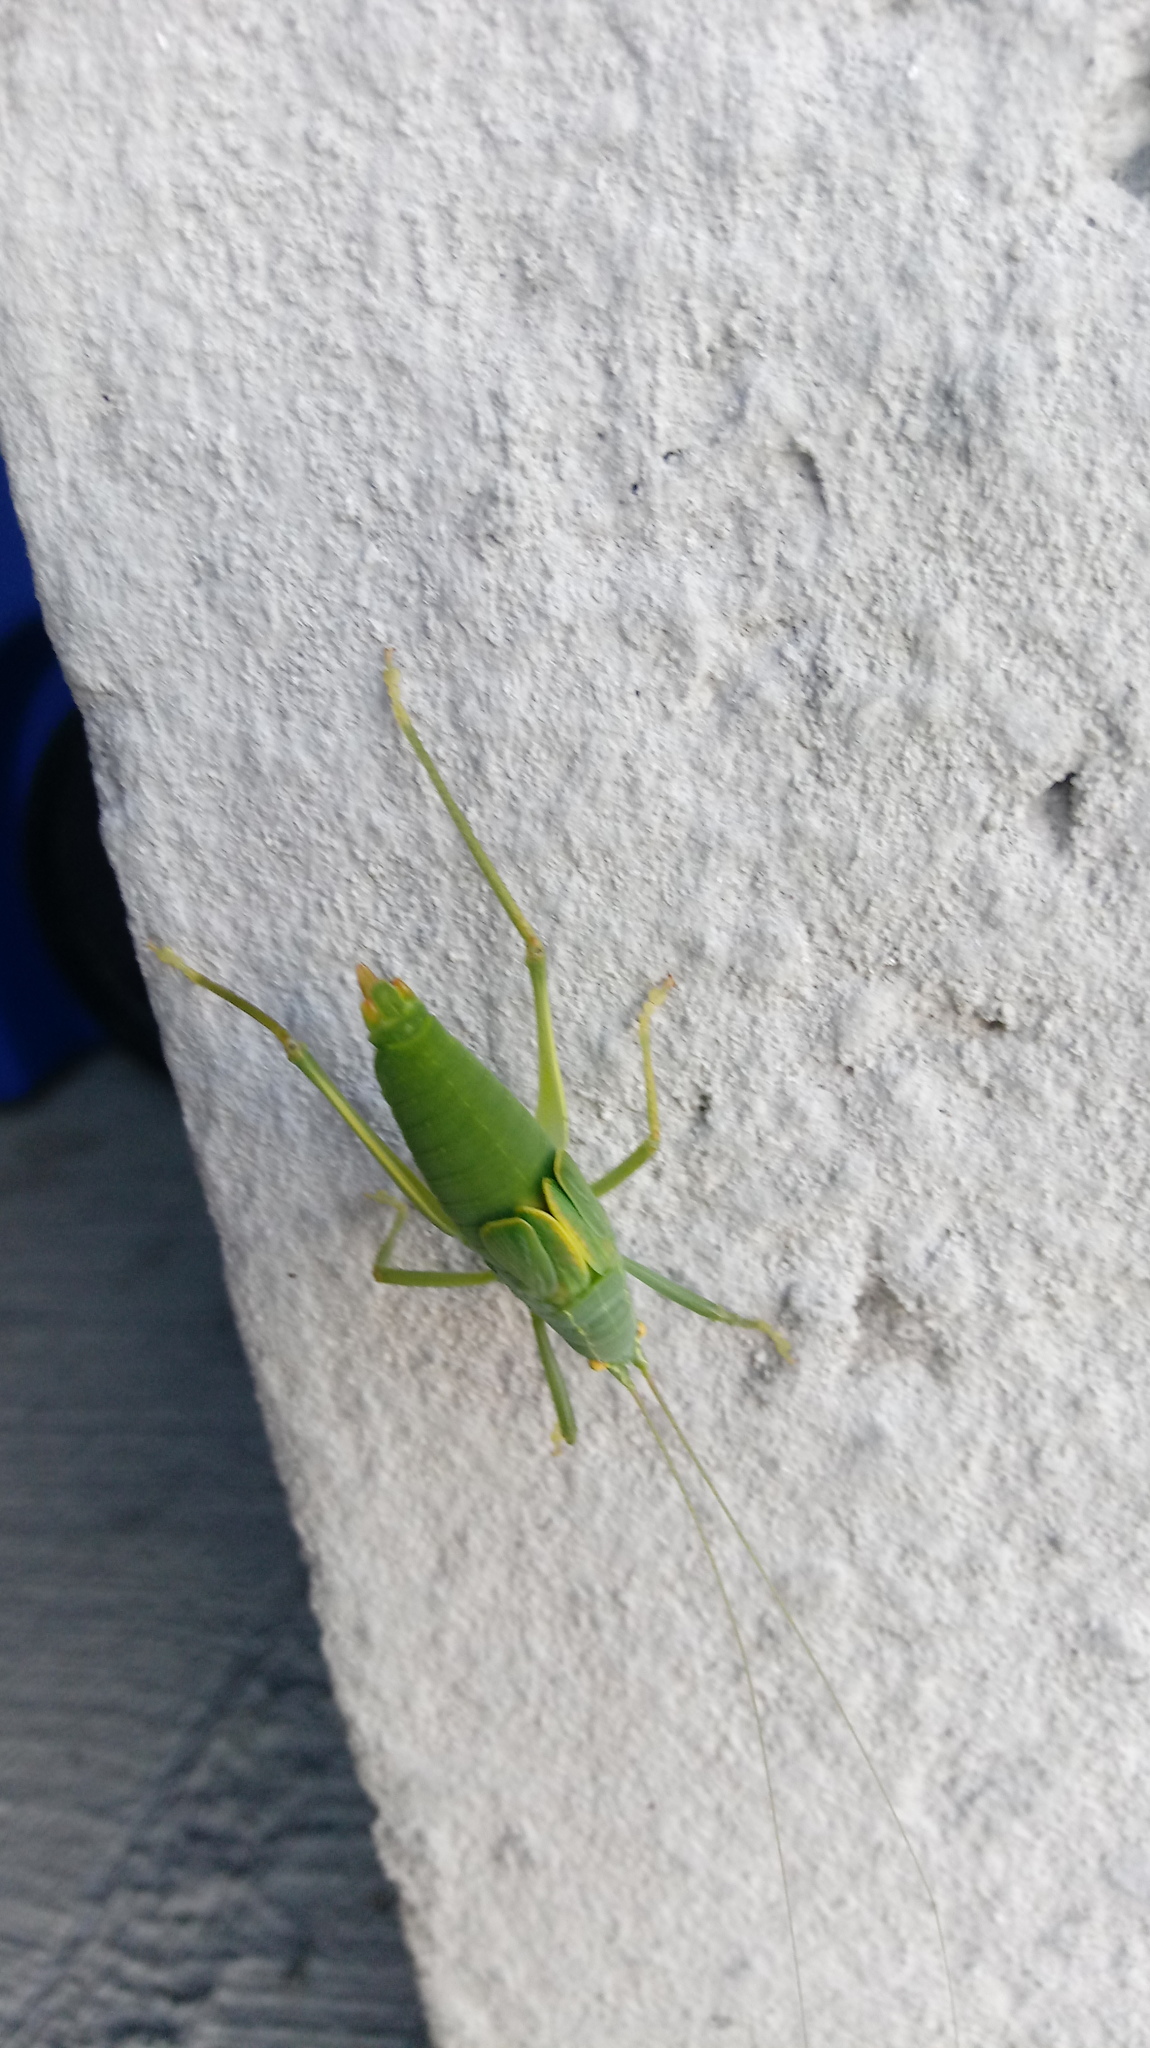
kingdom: Animalia
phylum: Arthropoda
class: Insecta
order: Orthoptera
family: Tettigoniidae
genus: Pterophylla
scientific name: Pterophylla camellifolia
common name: Common true katydid
